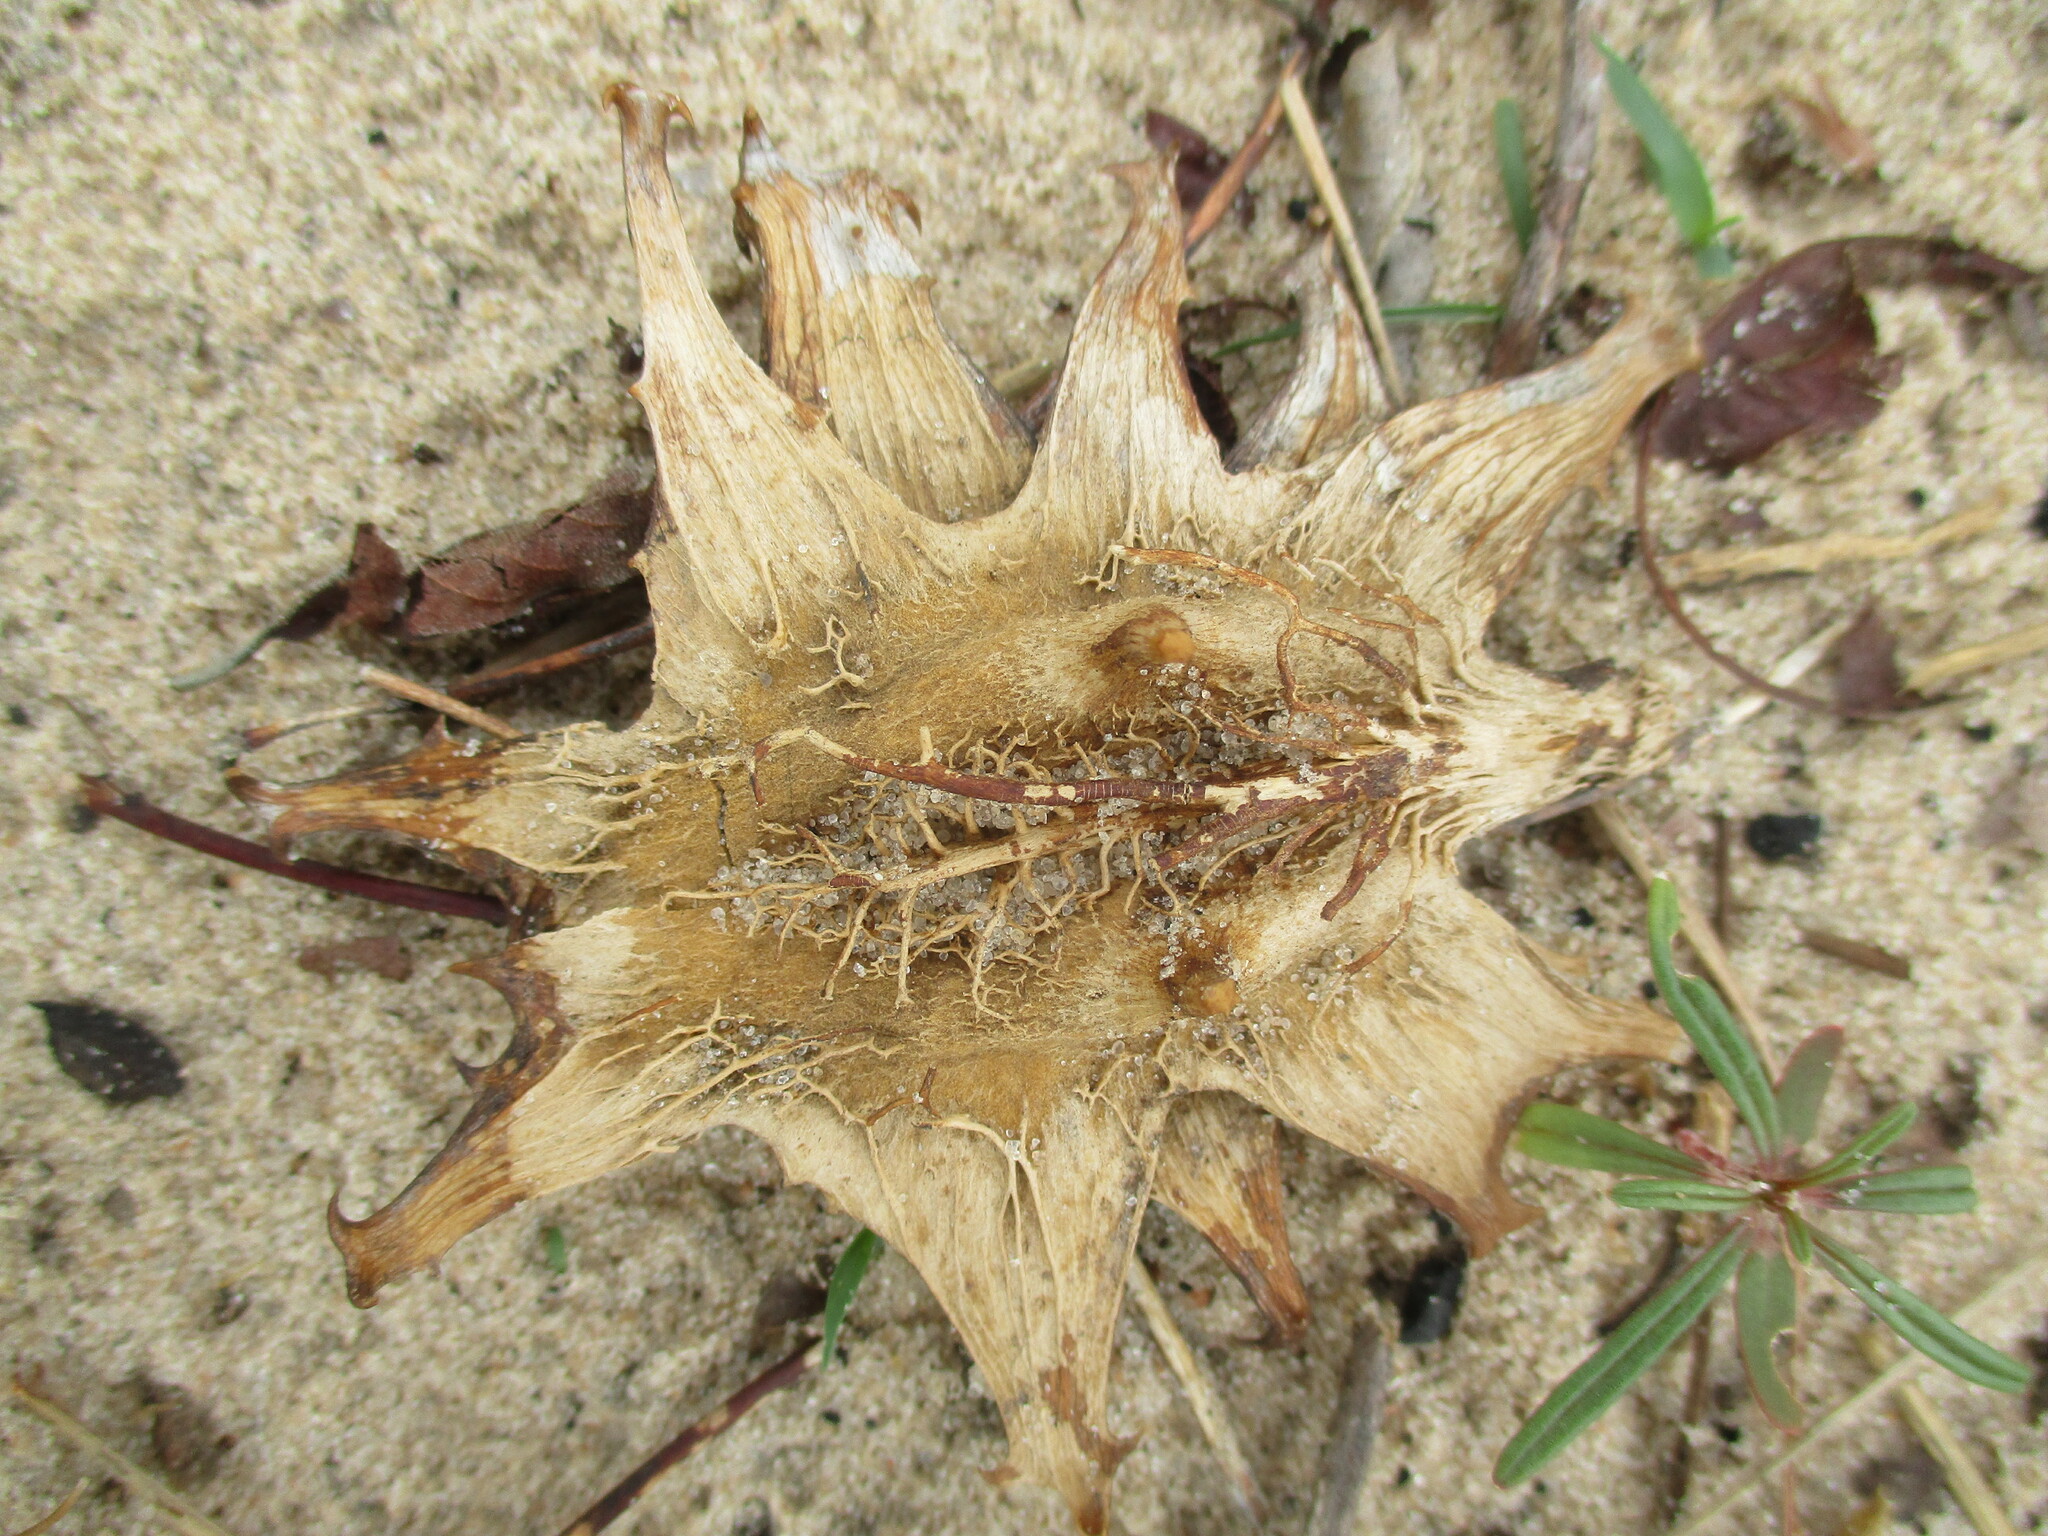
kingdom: Plantae
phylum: Tracheophyta
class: Magnoliopsida
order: Lamiales
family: Pedaliaceae
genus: Harpagophytum
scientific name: Harpagophytum zeyheri
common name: Grappleplant
